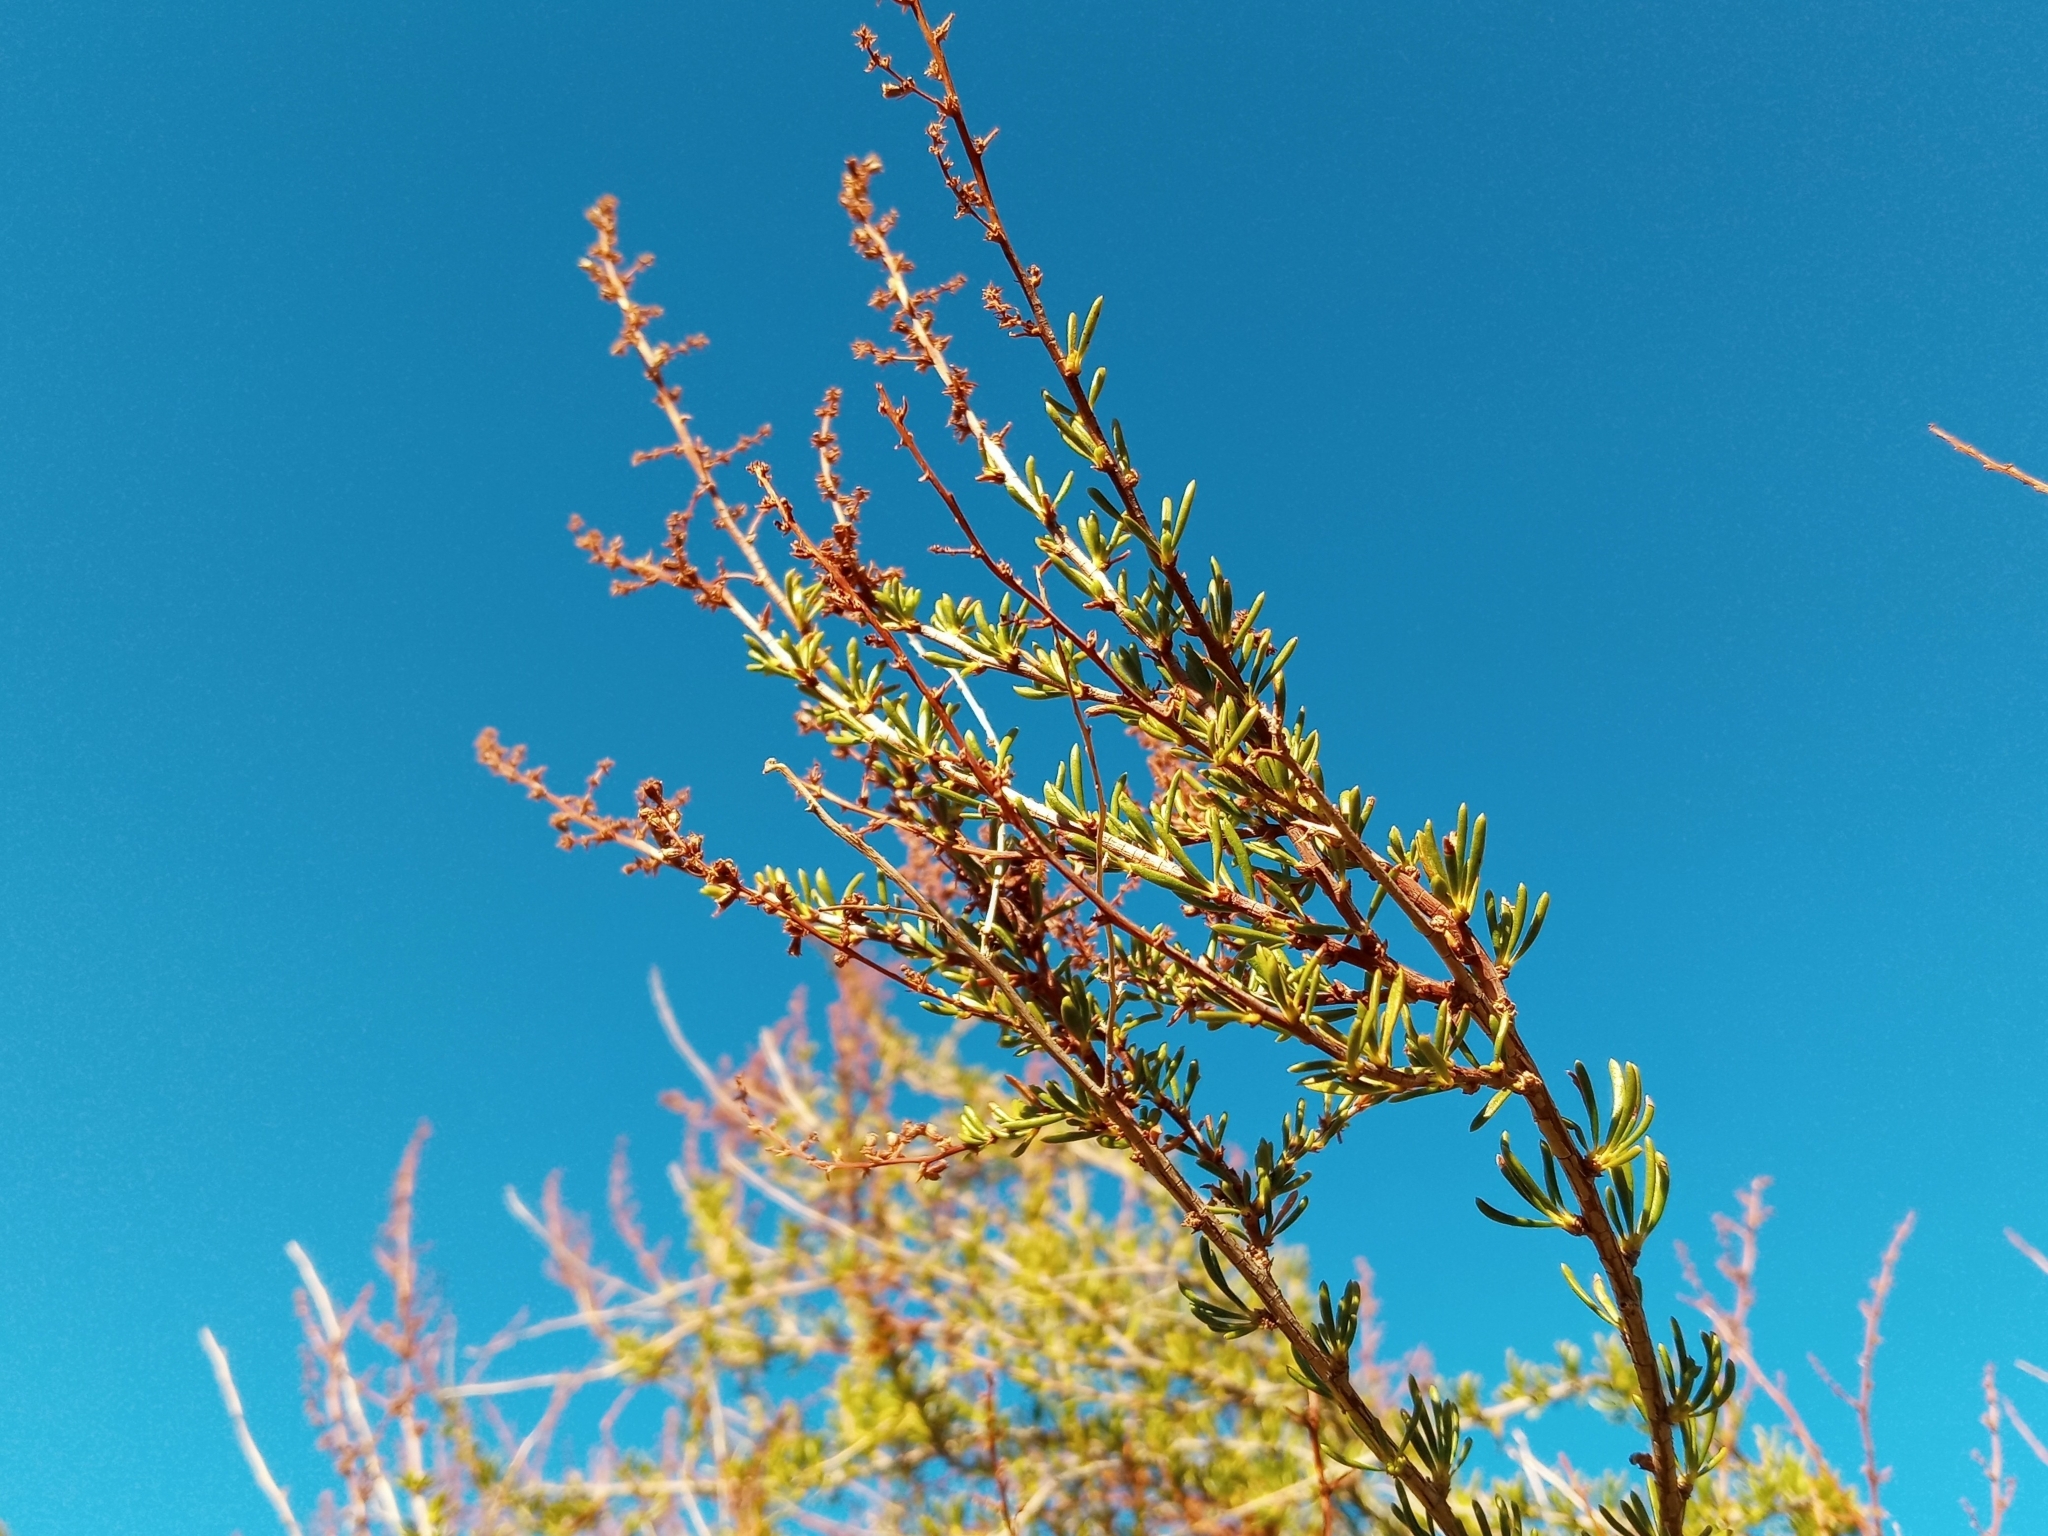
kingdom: Plantae
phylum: Tracheophyta
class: Magnoliopsida
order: Rosales
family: Rosaceae
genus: Adenostoma
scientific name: Adenostoma fasciculatum
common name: Chamise
